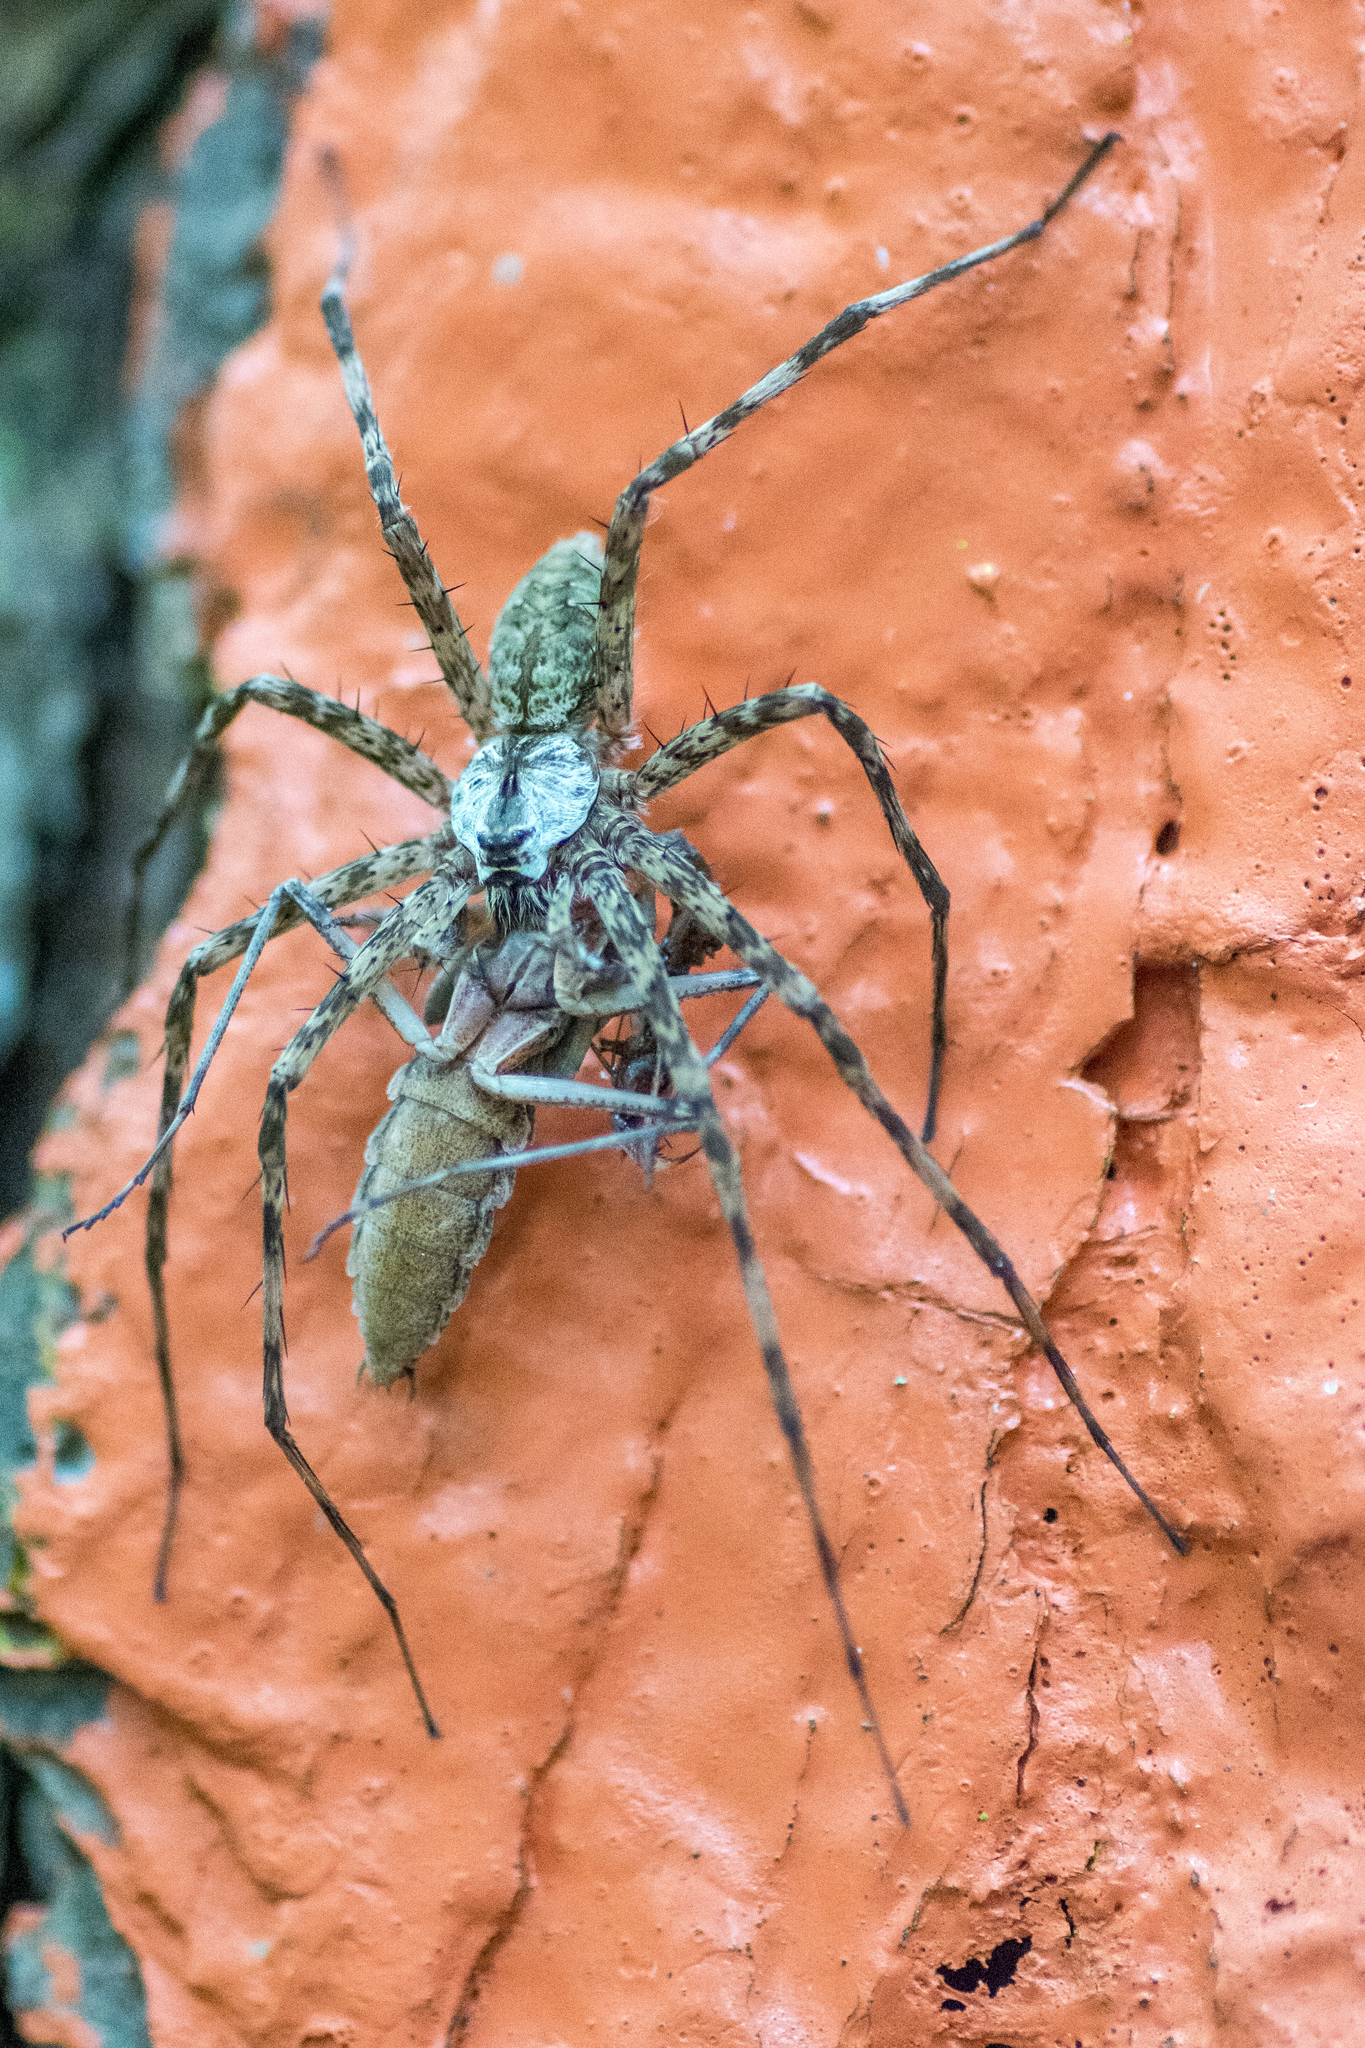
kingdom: Animalia
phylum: Arthropoda
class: Arachnida
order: Araneae
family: Pisauridae
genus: Dolomedes
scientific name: Dolomedes albineus
